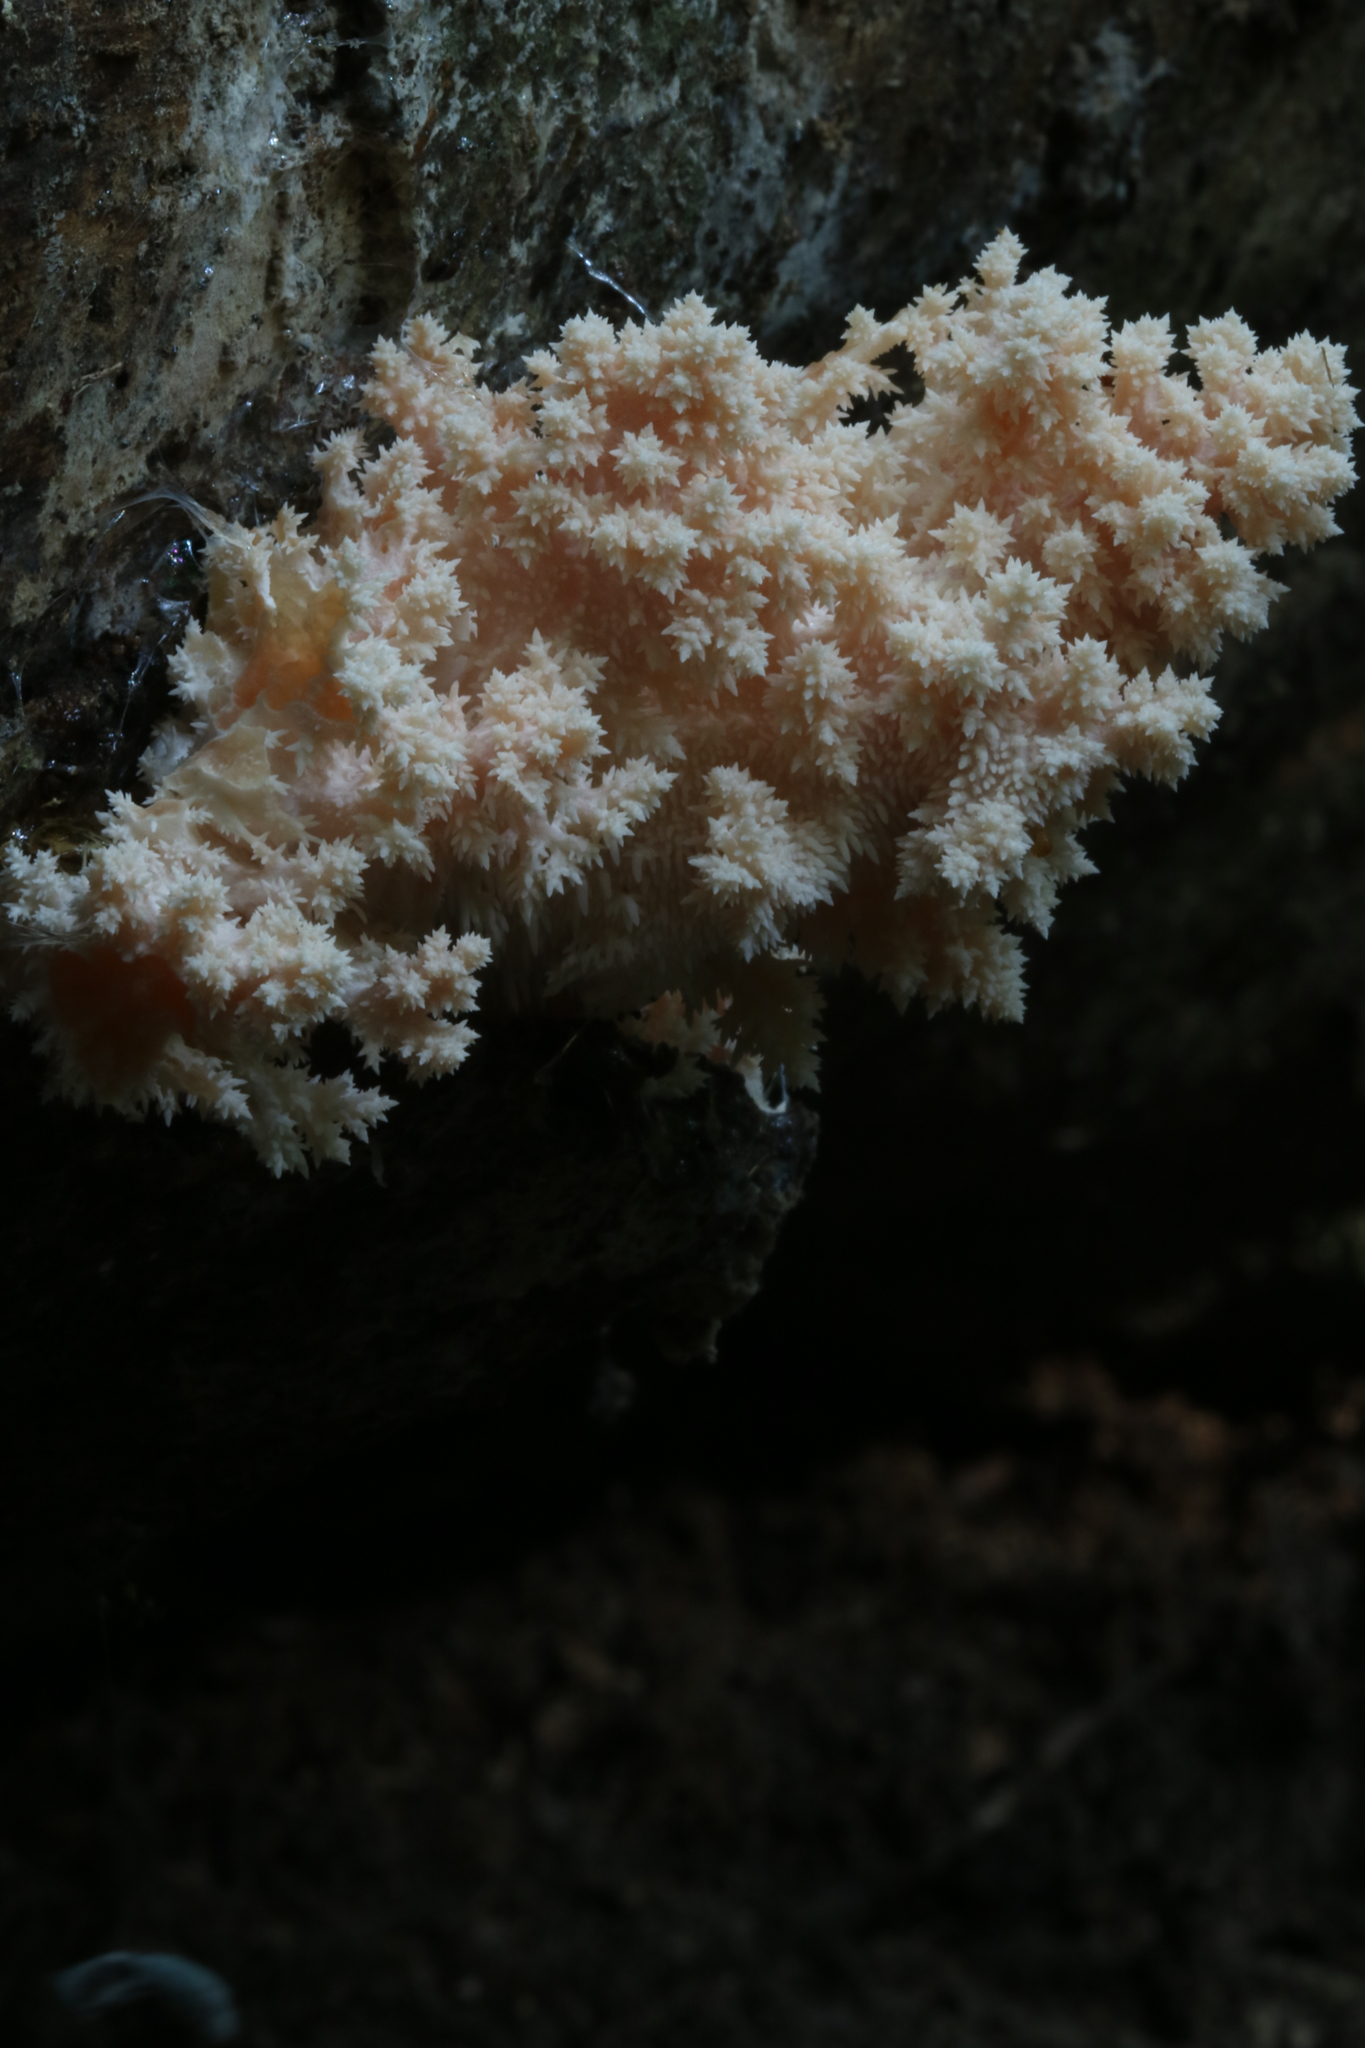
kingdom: Fungi
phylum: Basidiomycota
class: Agaricomycetes
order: Russulales
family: Hericiaceae
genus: Hericium
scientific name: Hericium coralloides
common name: Coral tooth
